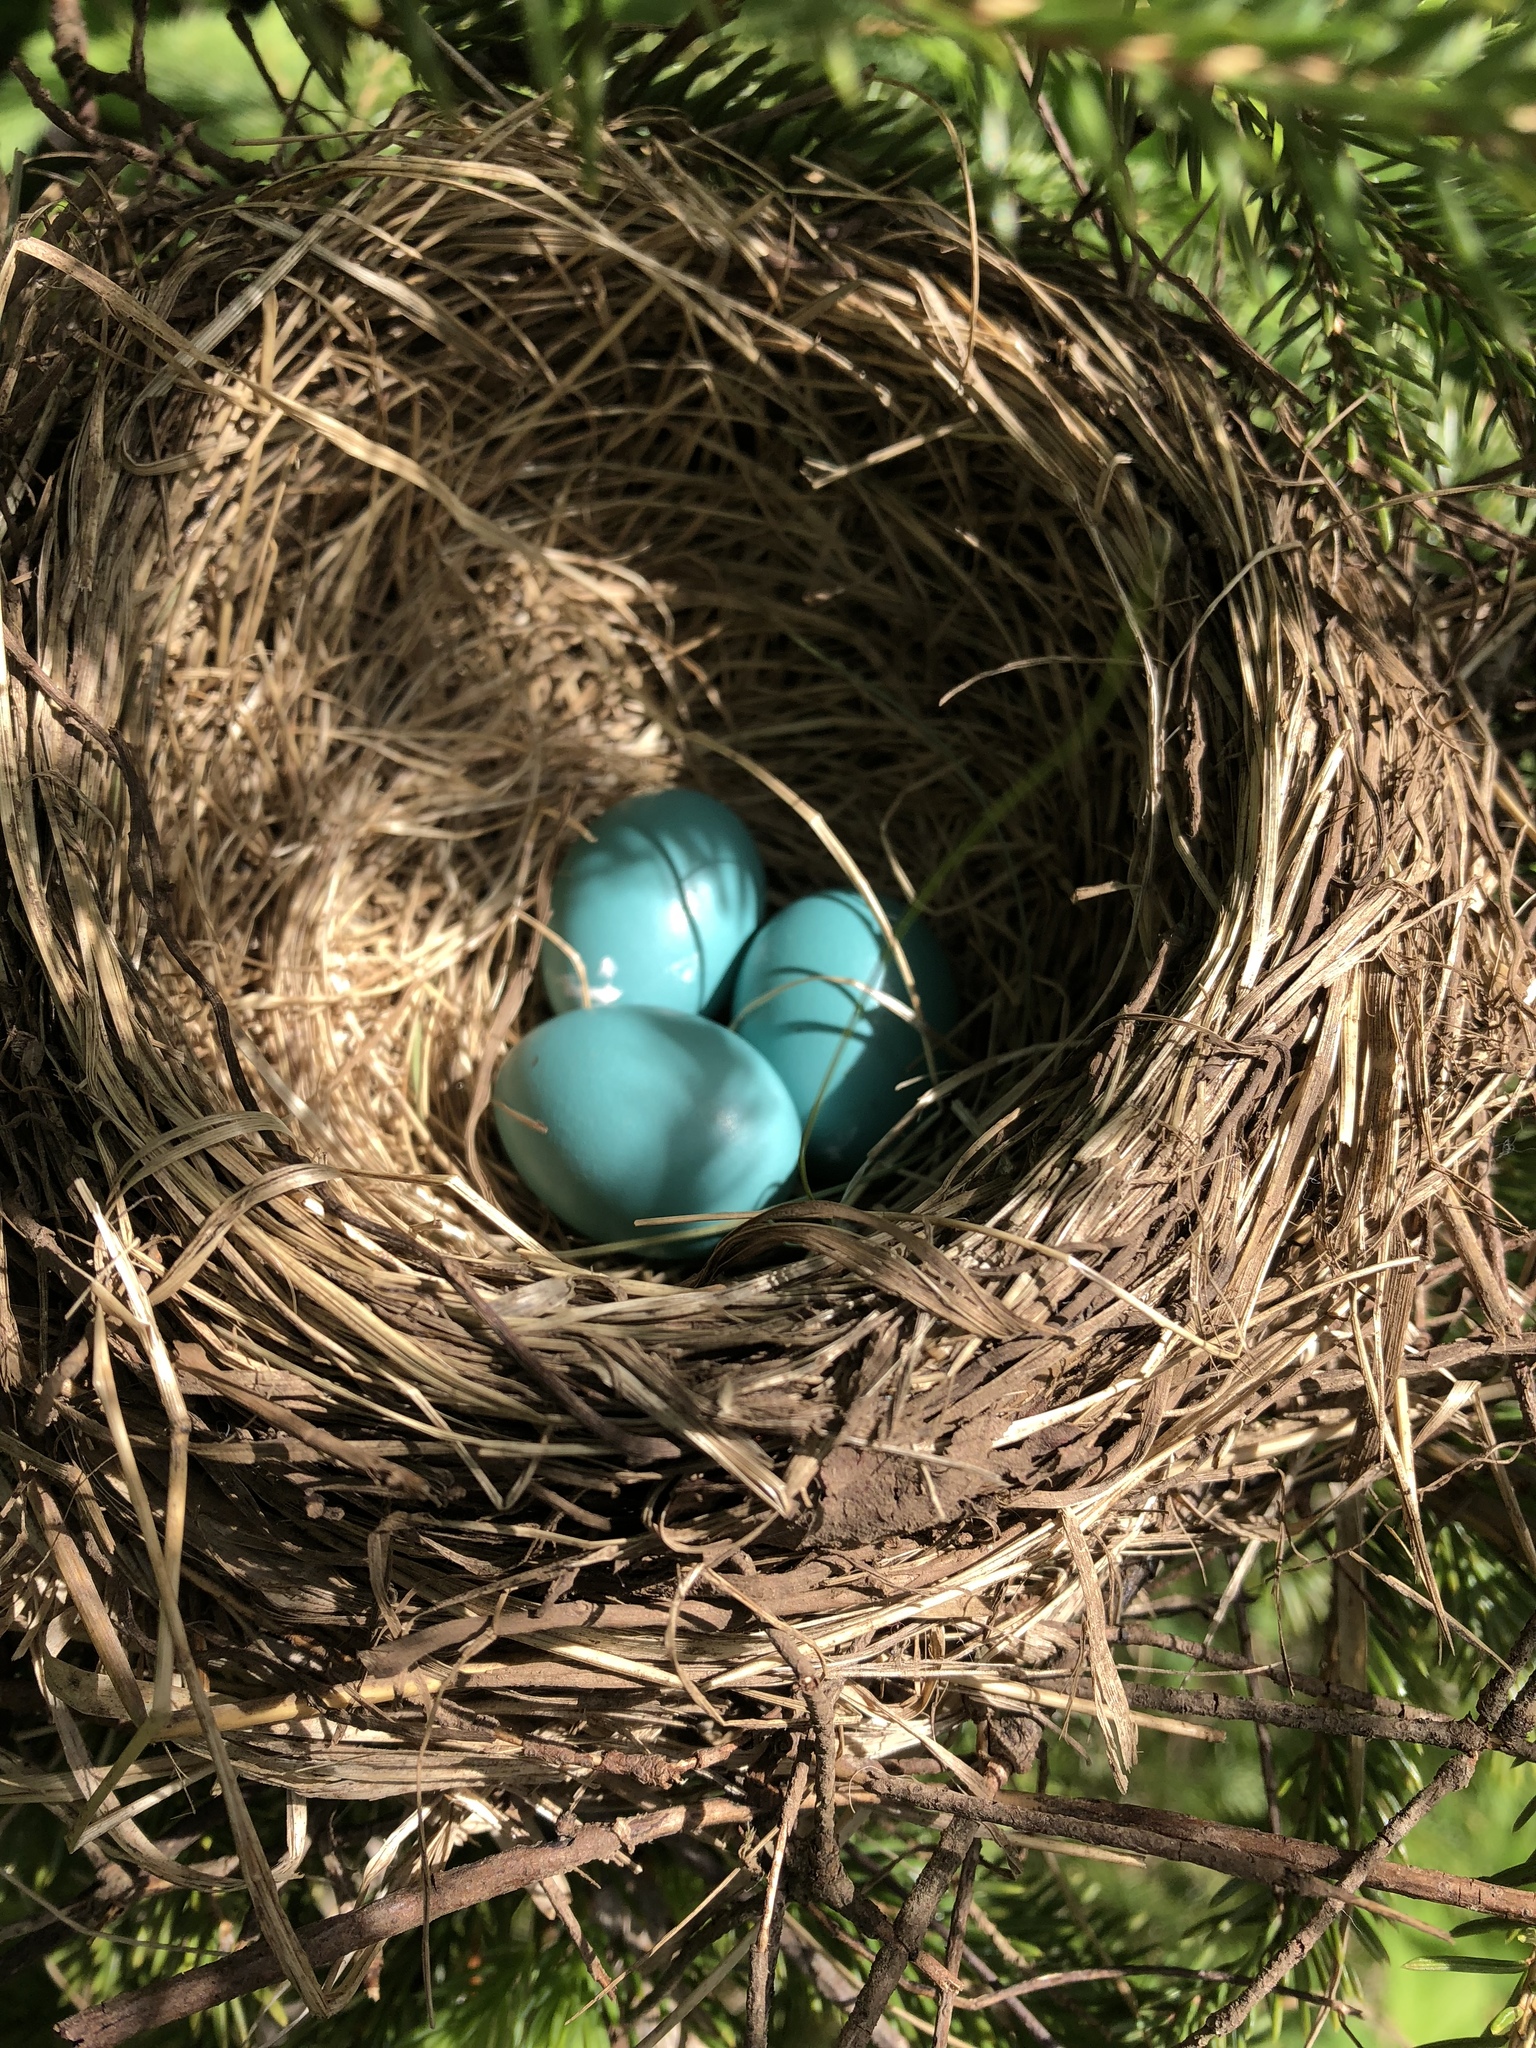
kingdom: Animalia
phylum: Chordata
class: Aves
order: Passeriformes
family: Turdidae
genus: Turdus
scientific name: Turdus migratorius
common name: American robin
